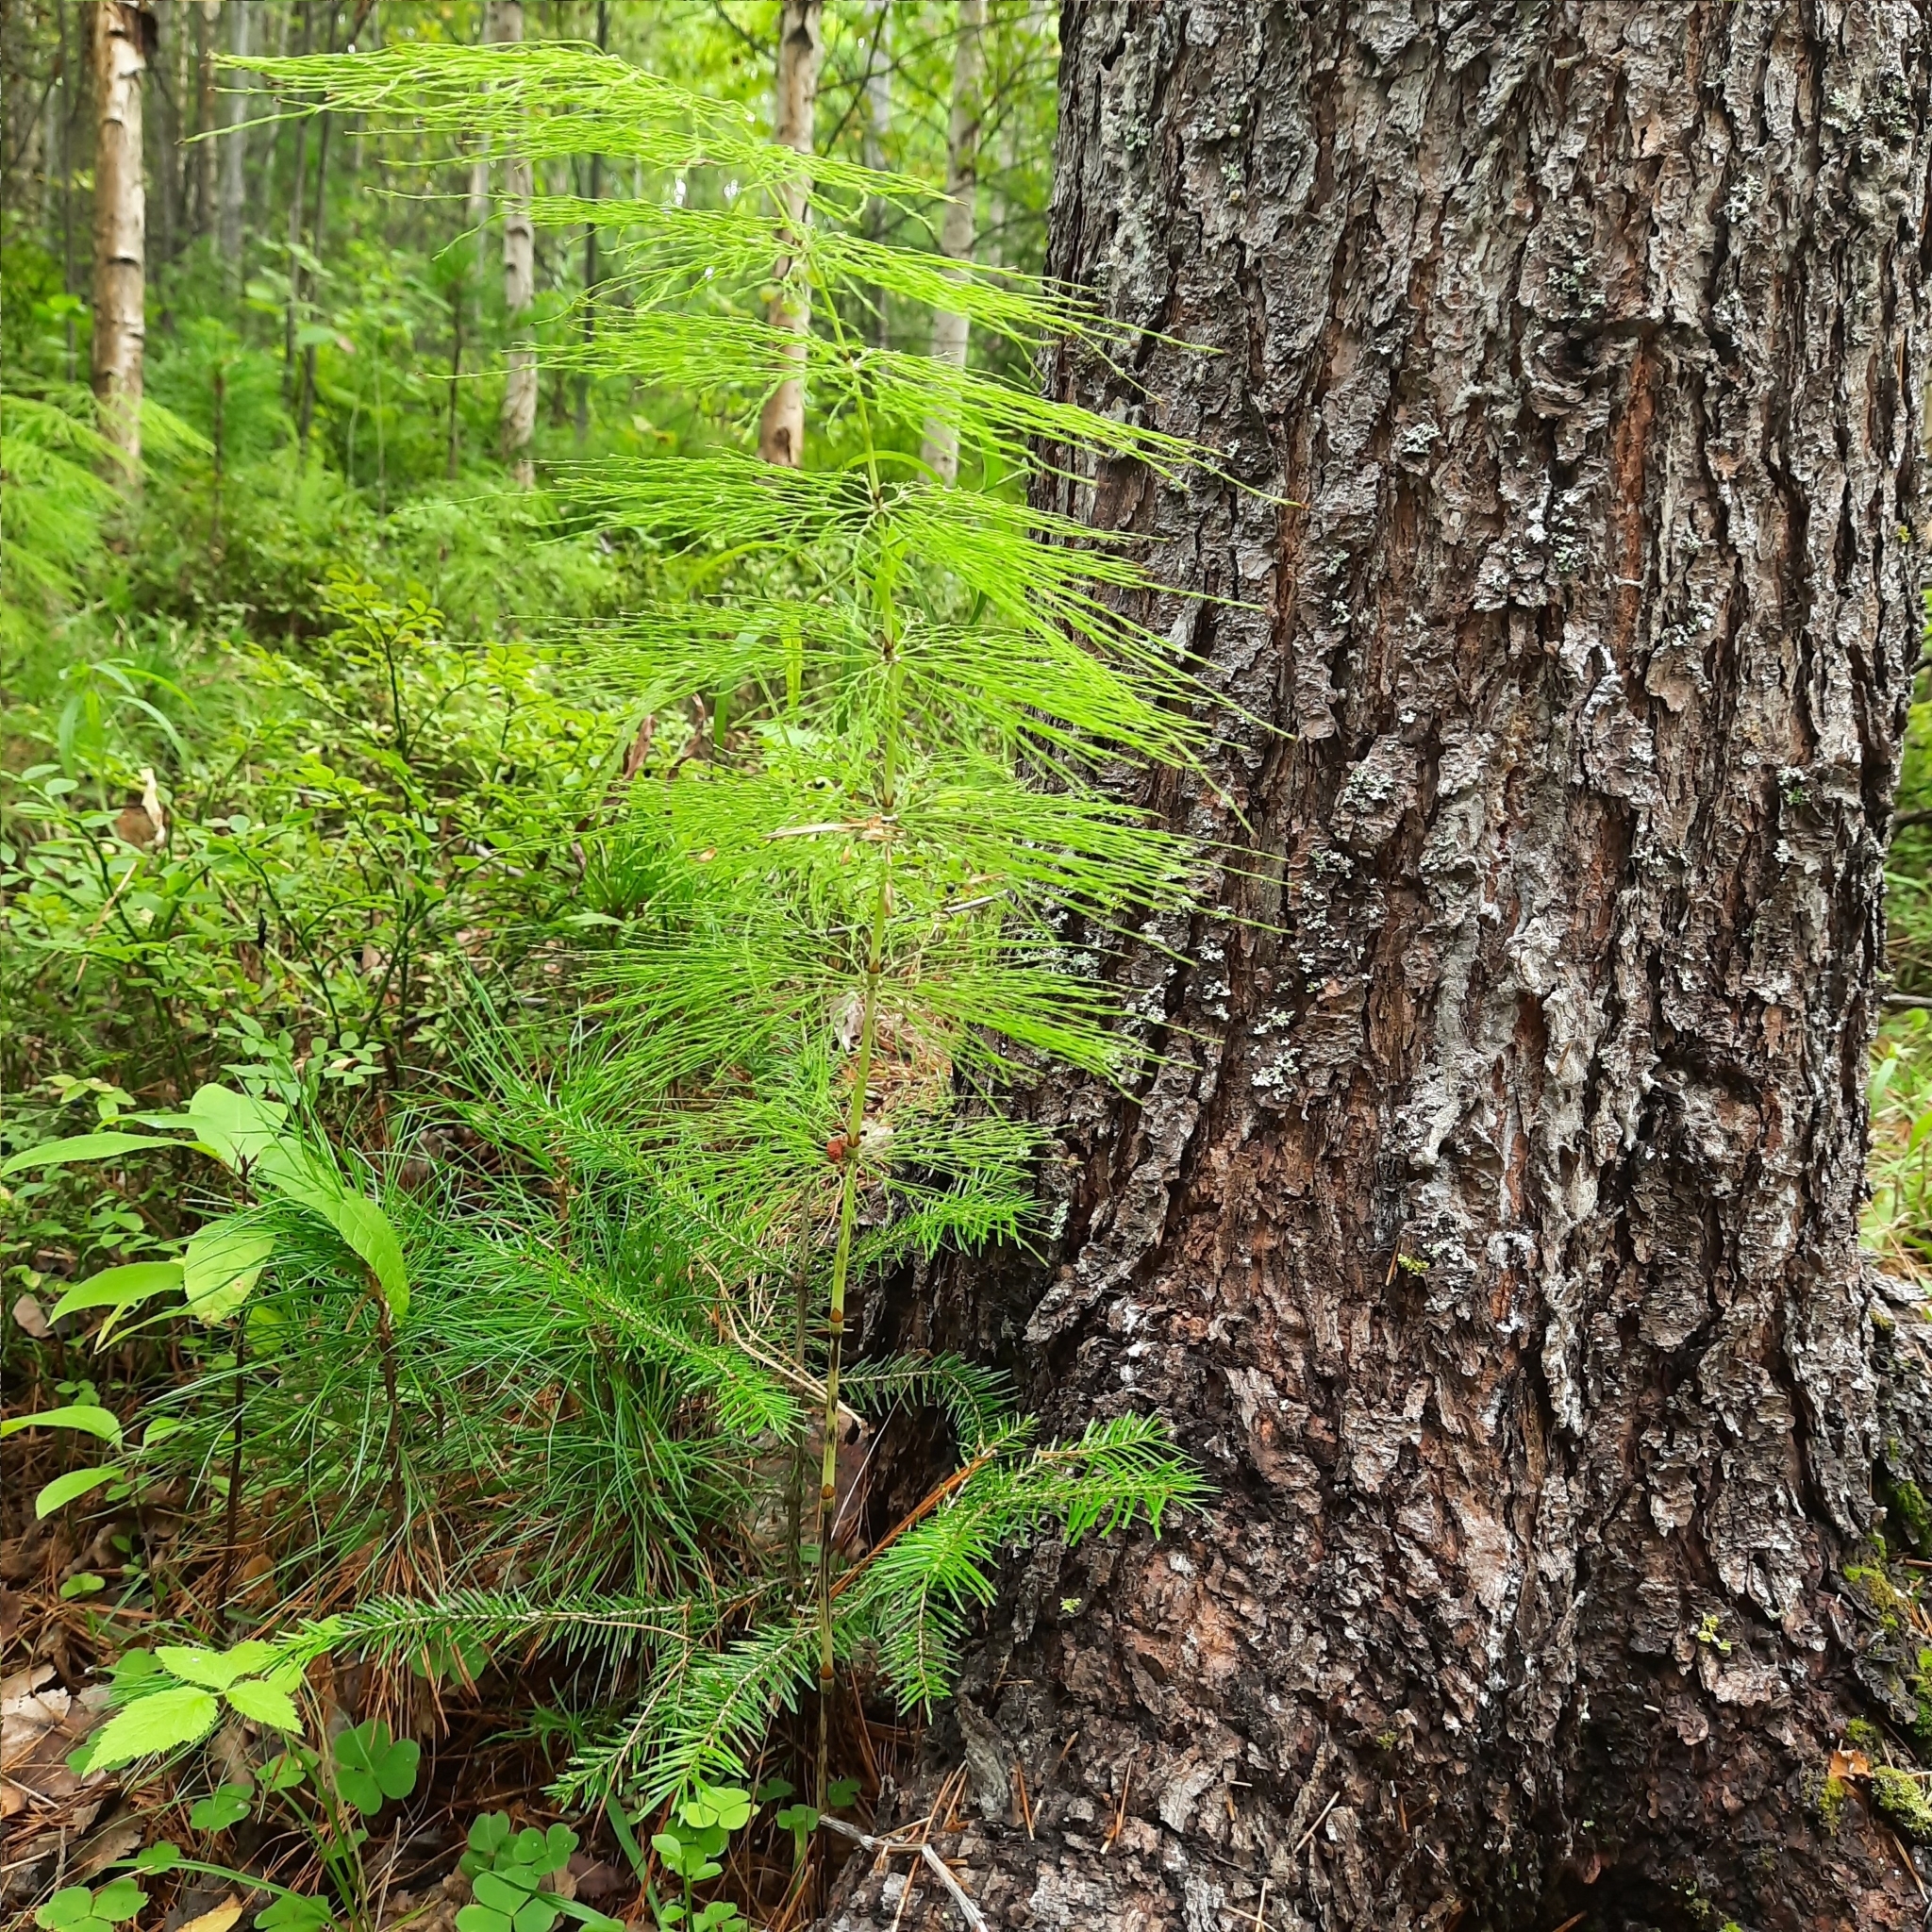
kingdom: Plantae
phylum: Tracheophyta
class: Polypodiopsida
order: Equisetales
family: Equisetaceae
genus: Equisetum
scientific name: Equisetum sylvaticum
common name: Wood horsetail
